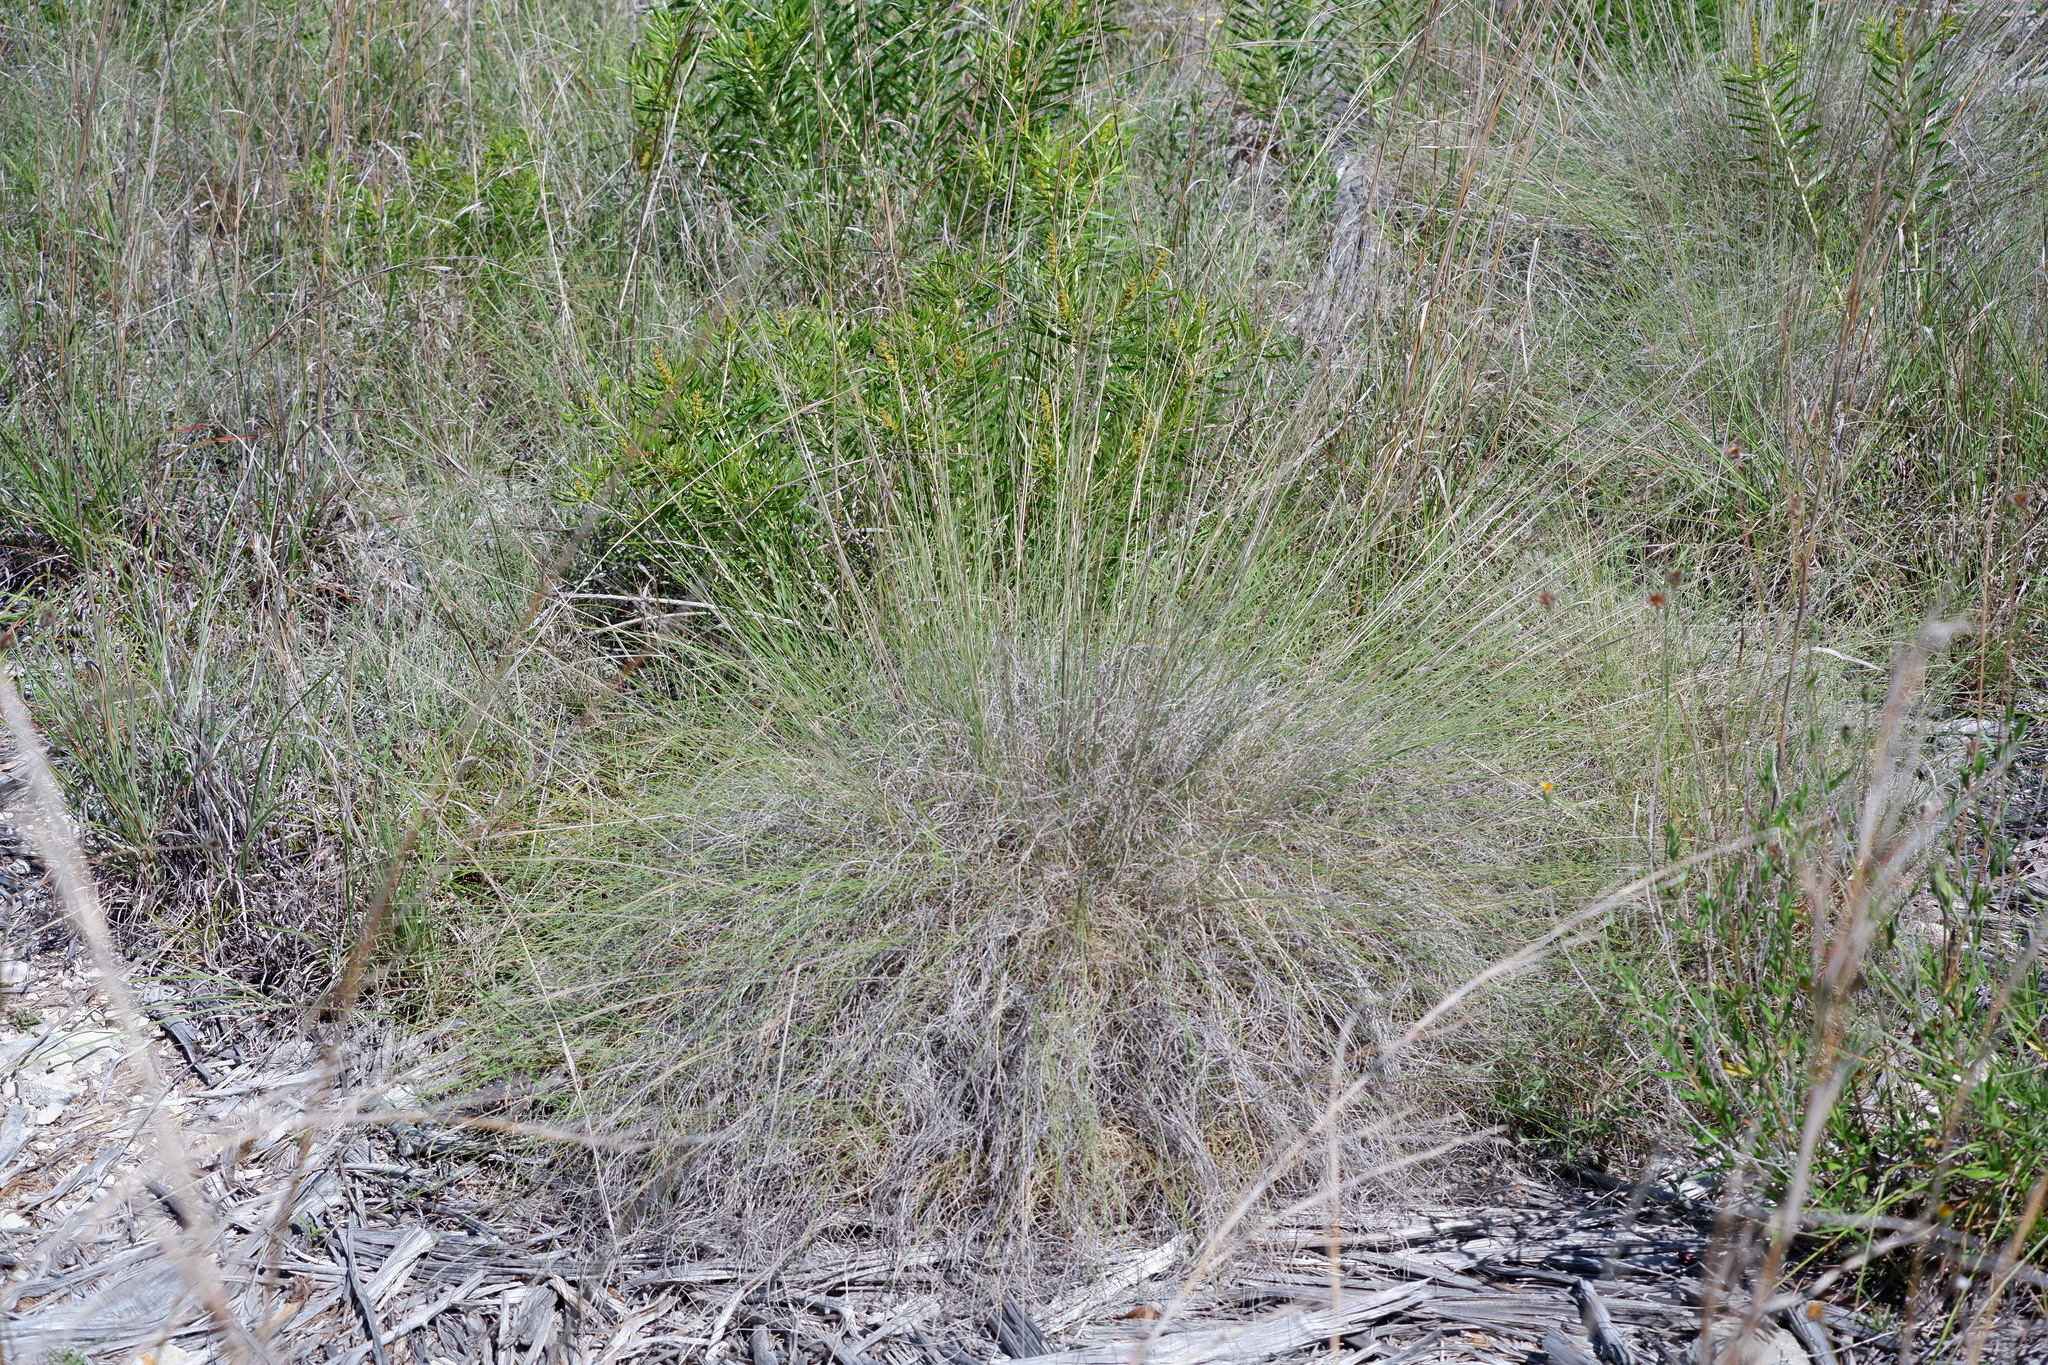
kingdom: Plantae
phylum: Tracheophyta
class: Liliopsida
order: Poales
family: Poaceae
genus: Muhlenbergia
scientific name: Muhlenbergia reverchonii
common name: Seep muhly
